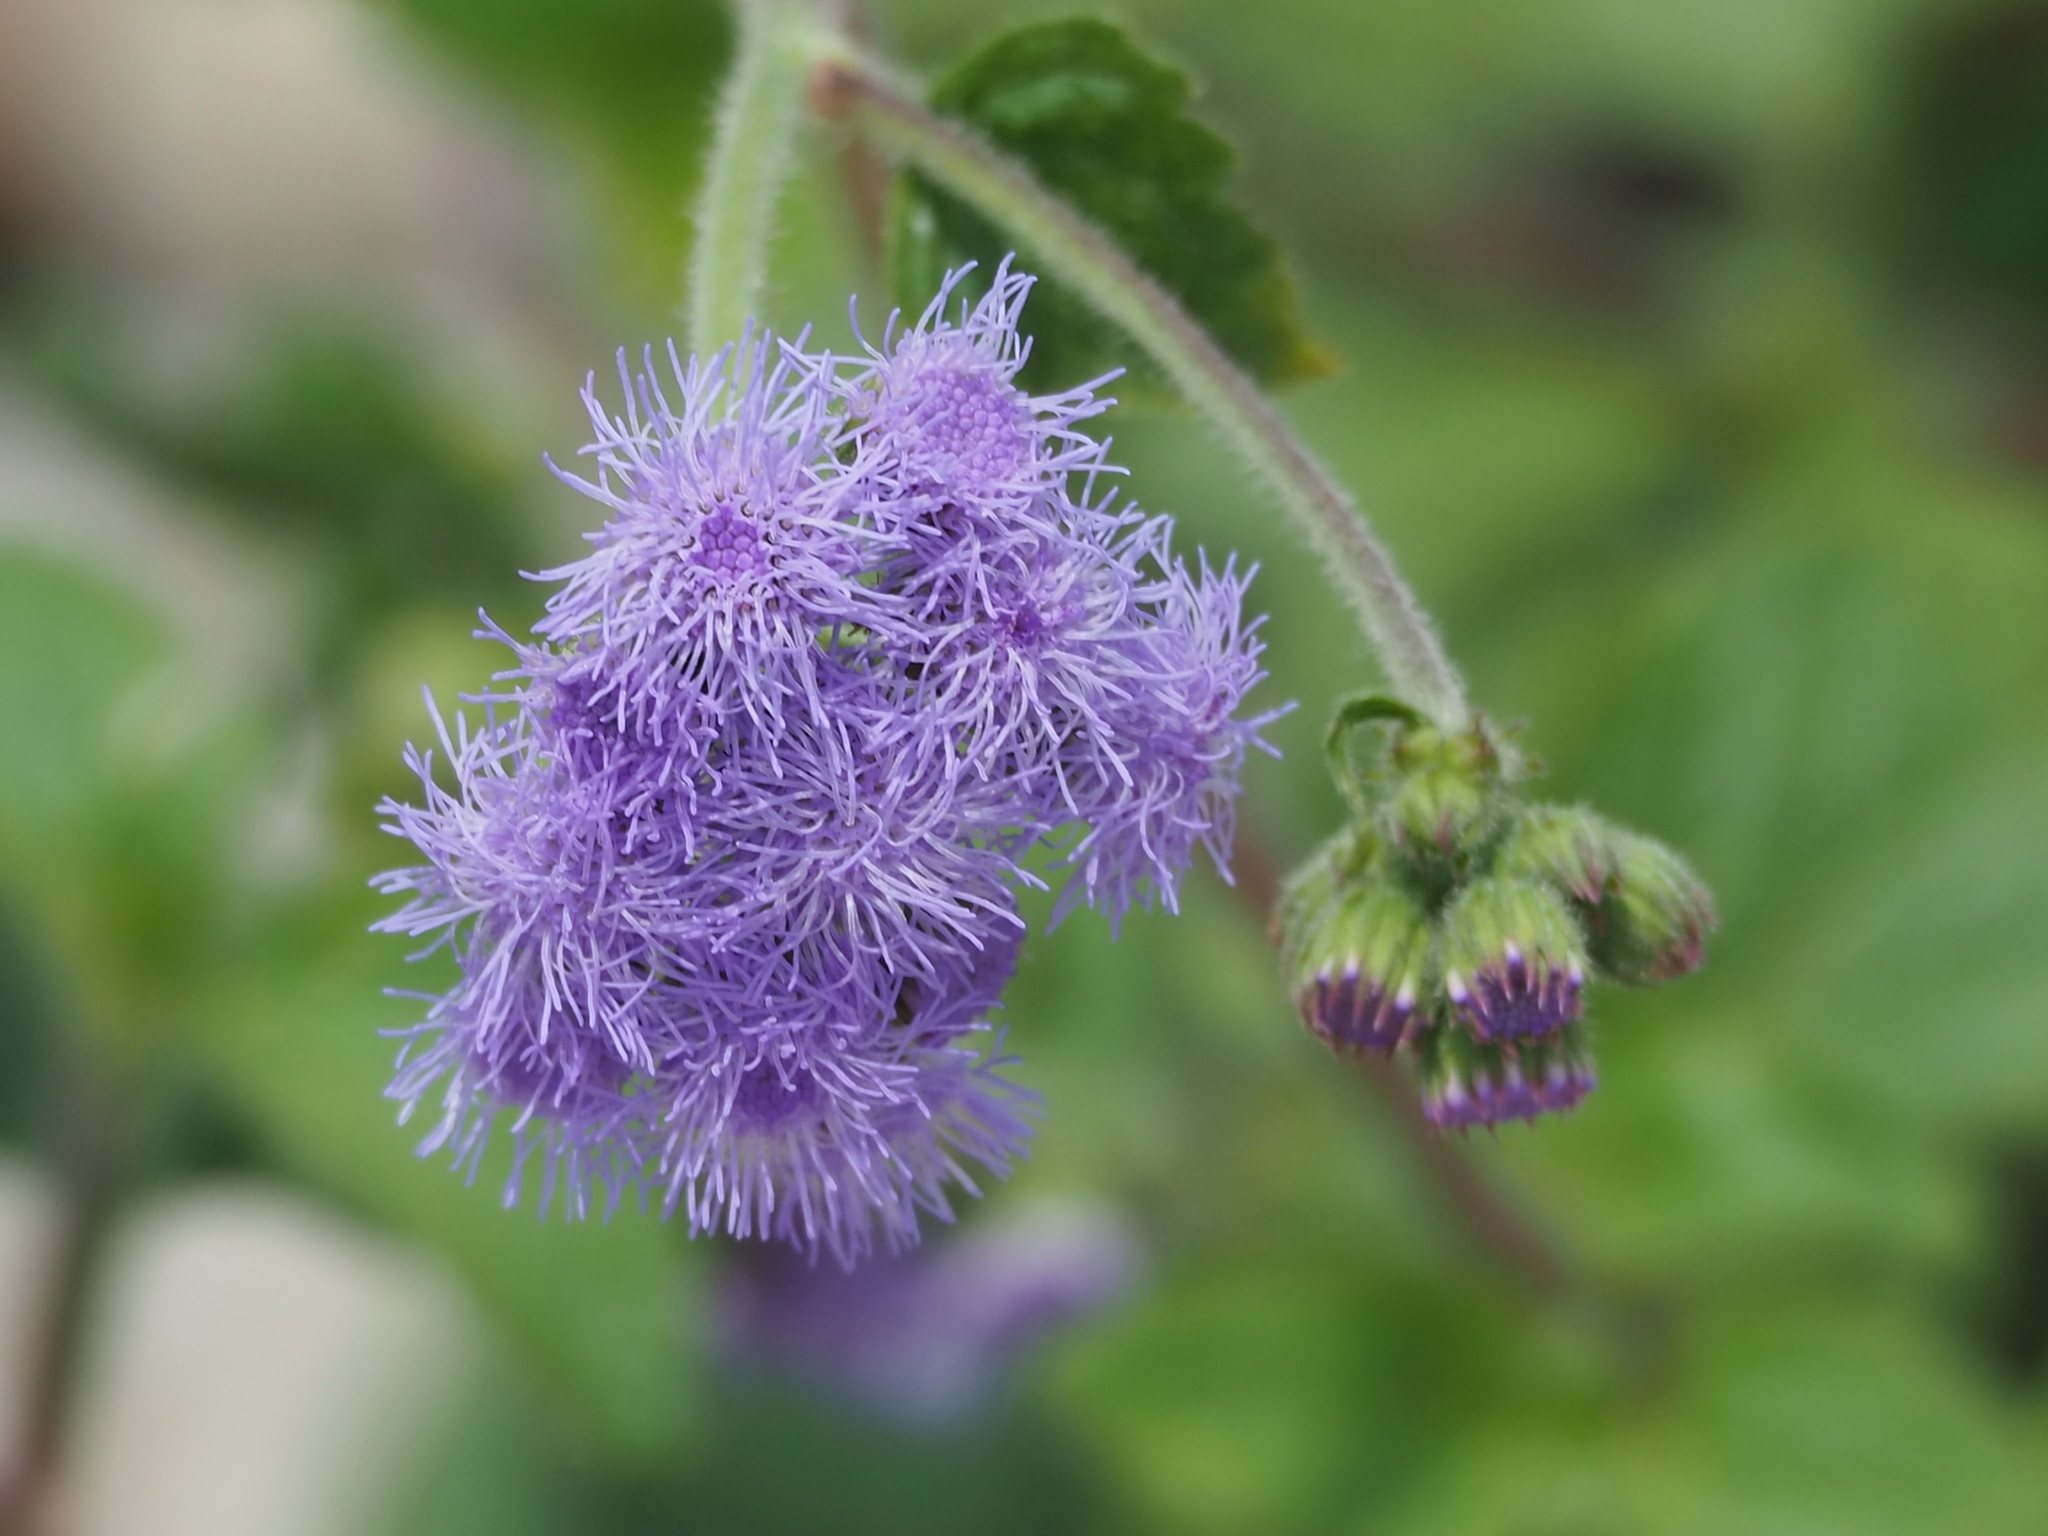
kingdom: Plantae
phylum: Tracheophyta
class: Magnoliopsida
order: Asterales
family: Asteraceae
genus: Ageratum
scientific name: Ageratum houstonianum
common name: Bluemink
